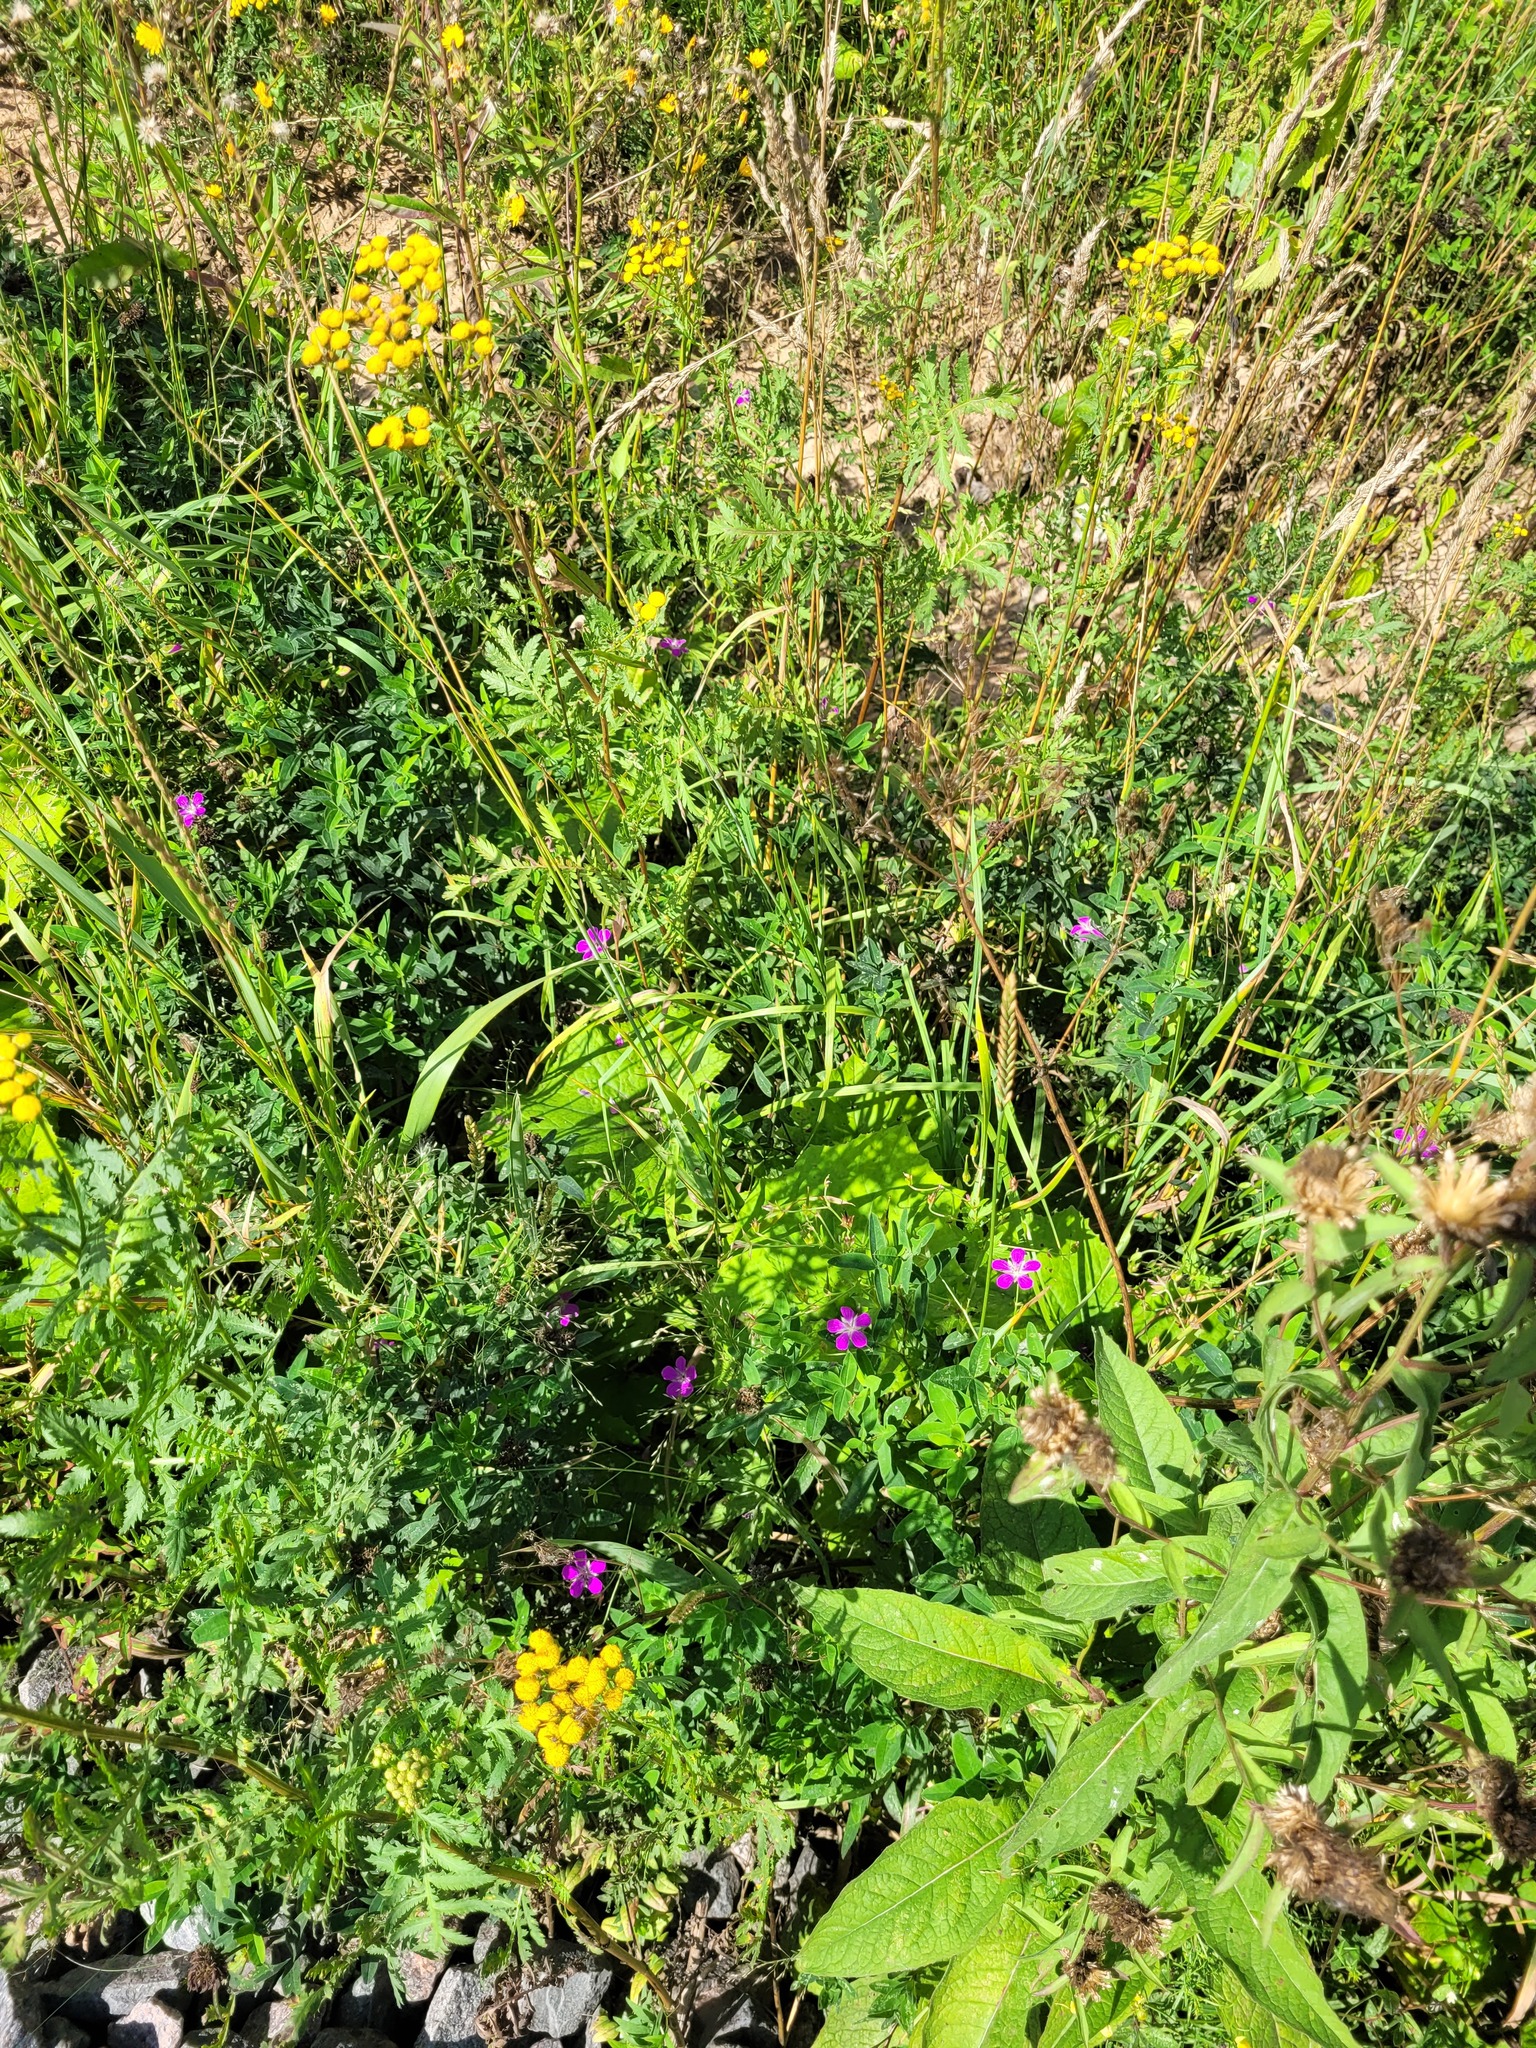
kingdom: Plantae
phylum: Tracheophyta
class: Magnoliopsida
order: Geraniales
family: Geraniaceae
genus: Geranium
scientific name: Geranium palustre
